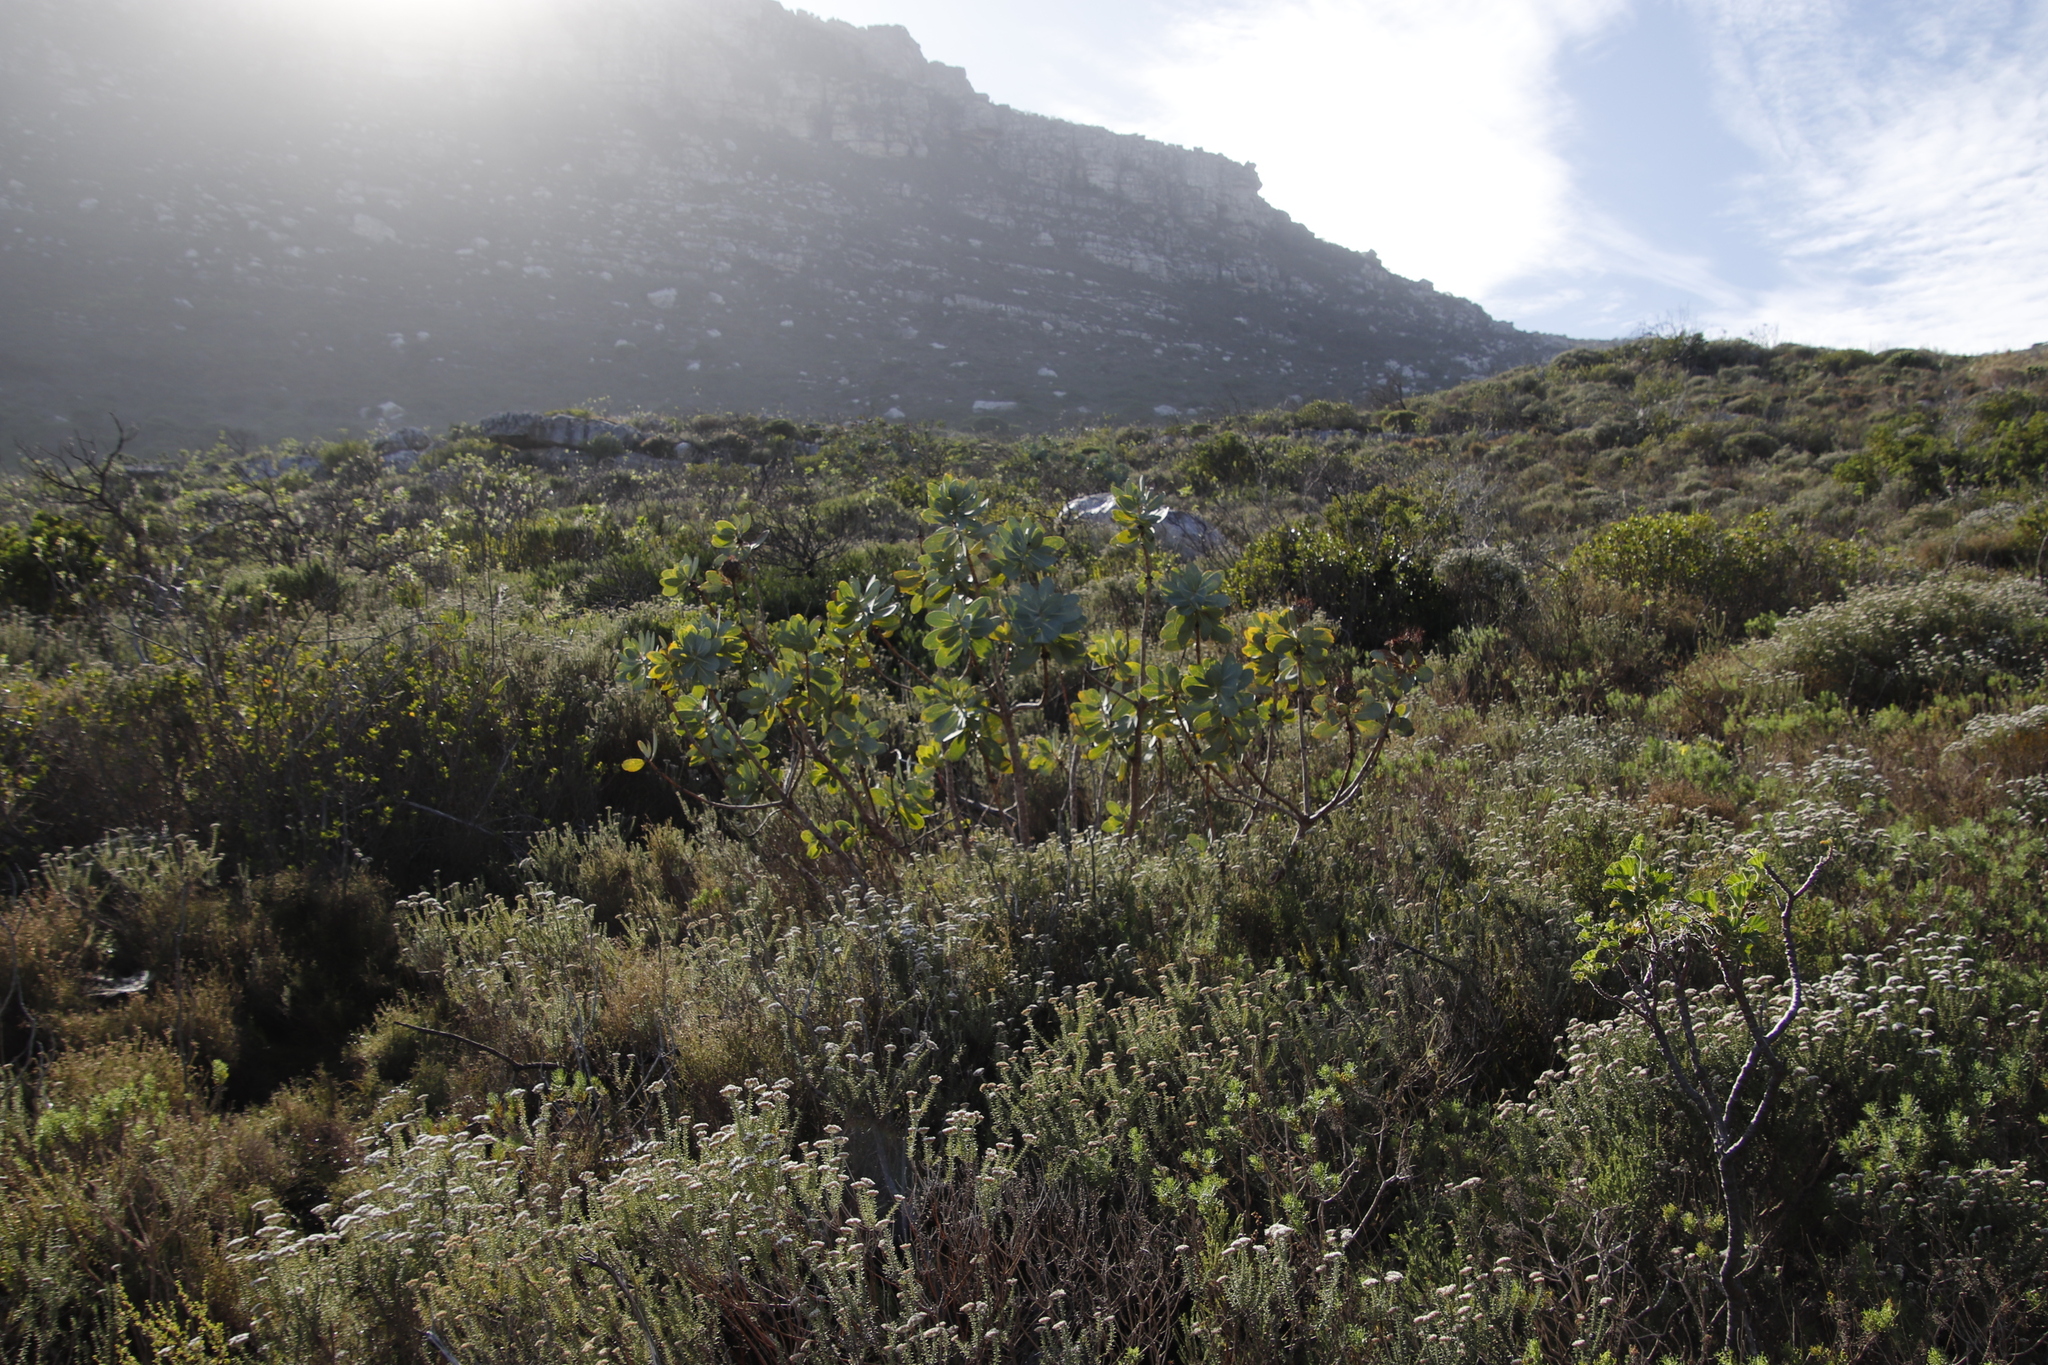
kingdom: Plantae
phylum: Tracheophyta
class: Magnoliopsida
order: Proteales
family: Proteaceae
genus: Protea
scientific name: Protea nitida
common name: Tree protea
